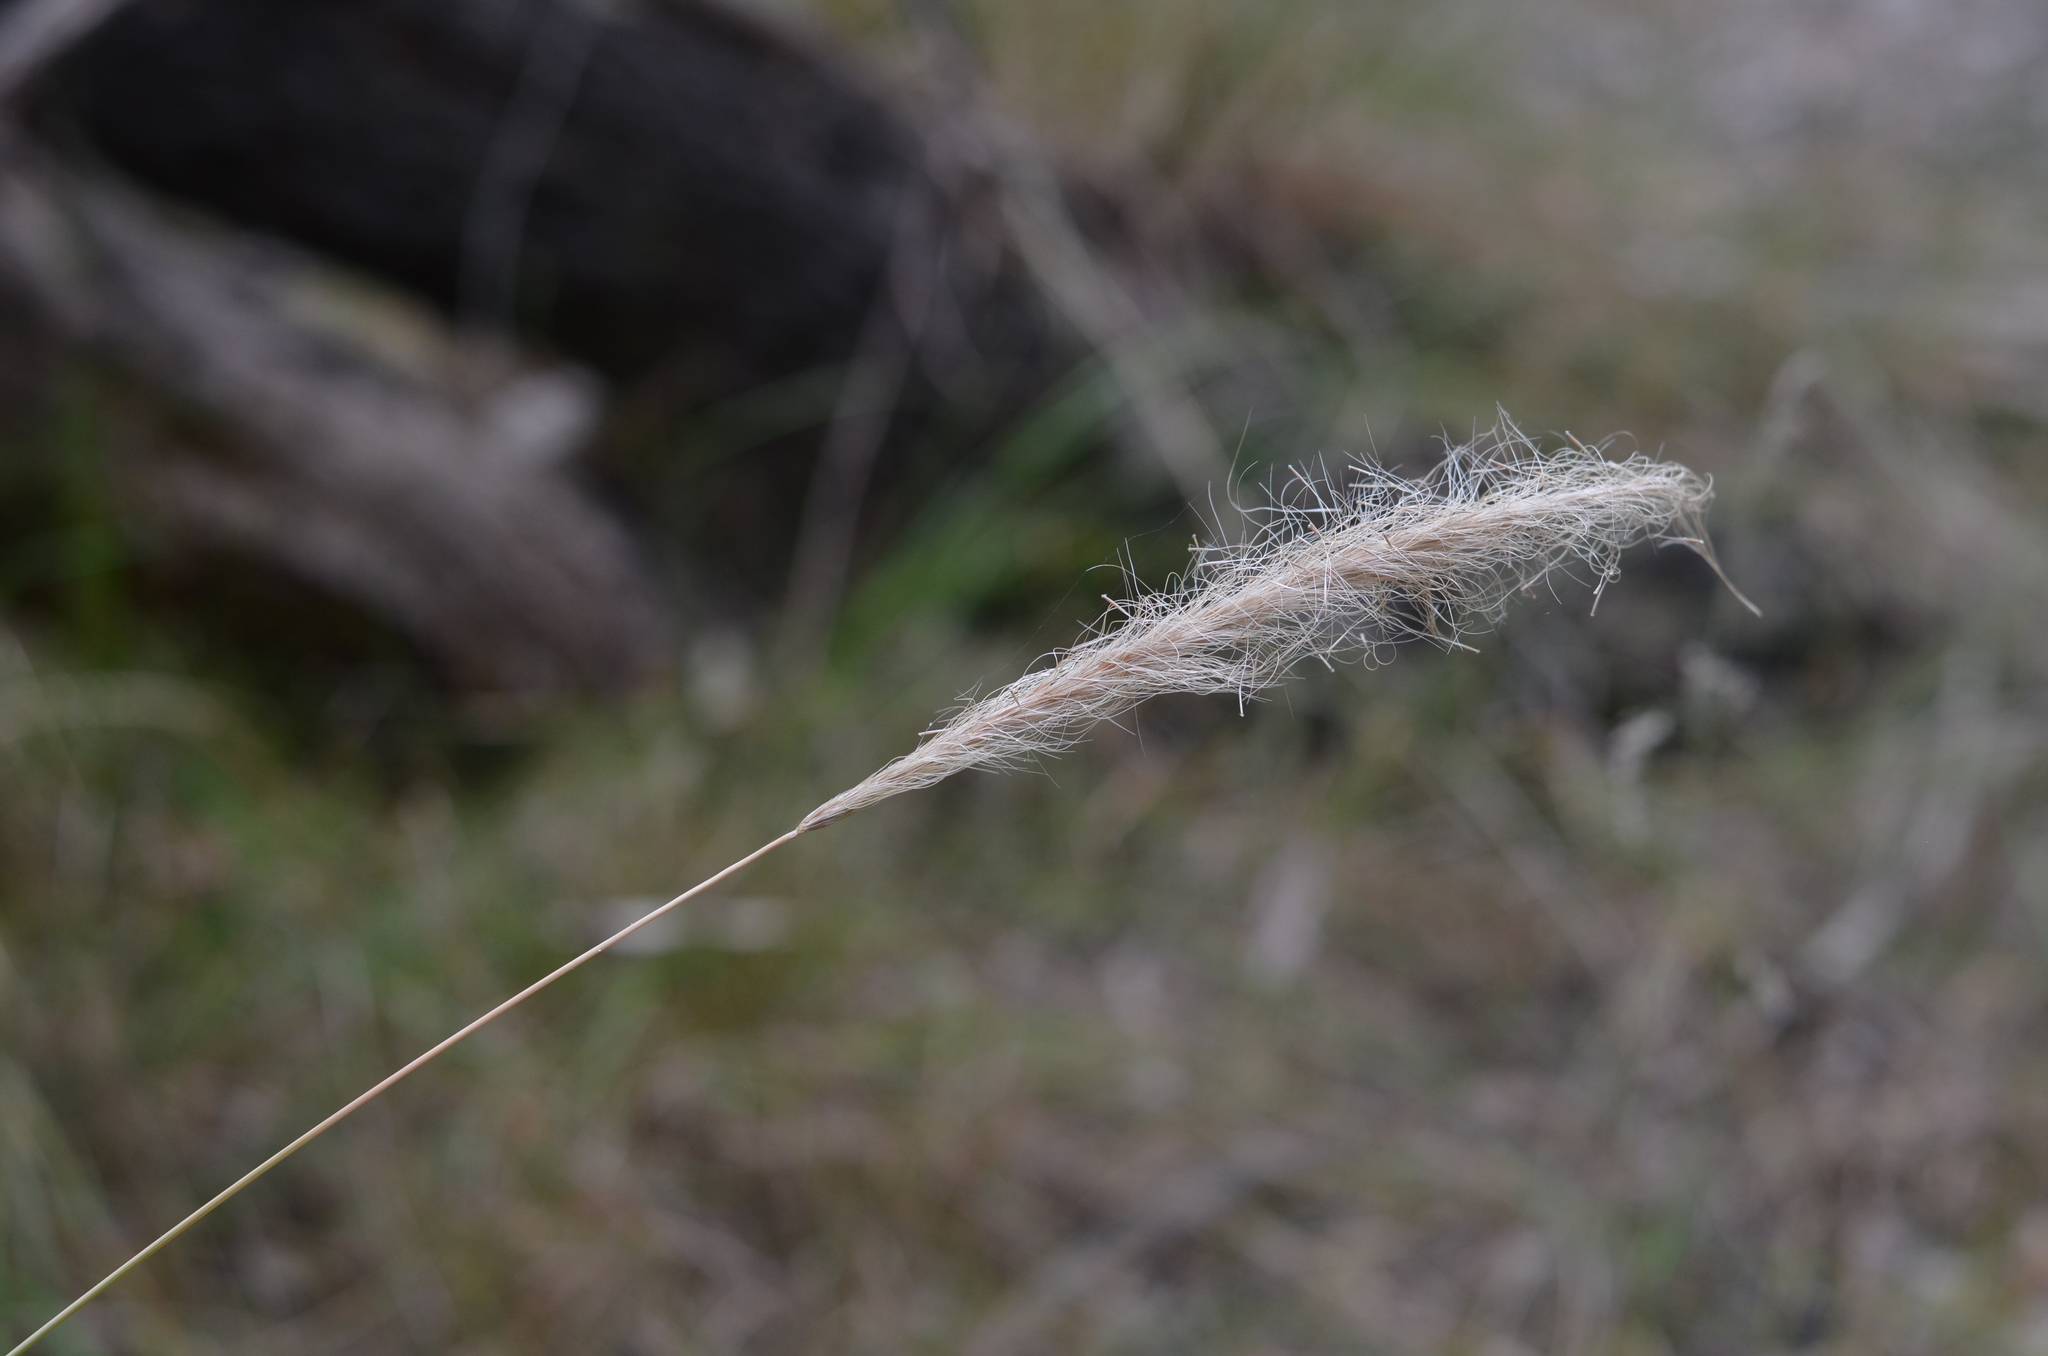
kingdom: Plantae
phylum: Tracheophyta
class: Liliopsida
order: Poales
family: Poaceae
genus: Dichelachne
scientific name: Dichelachne crinita
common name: Clovenfoot plumegrass
